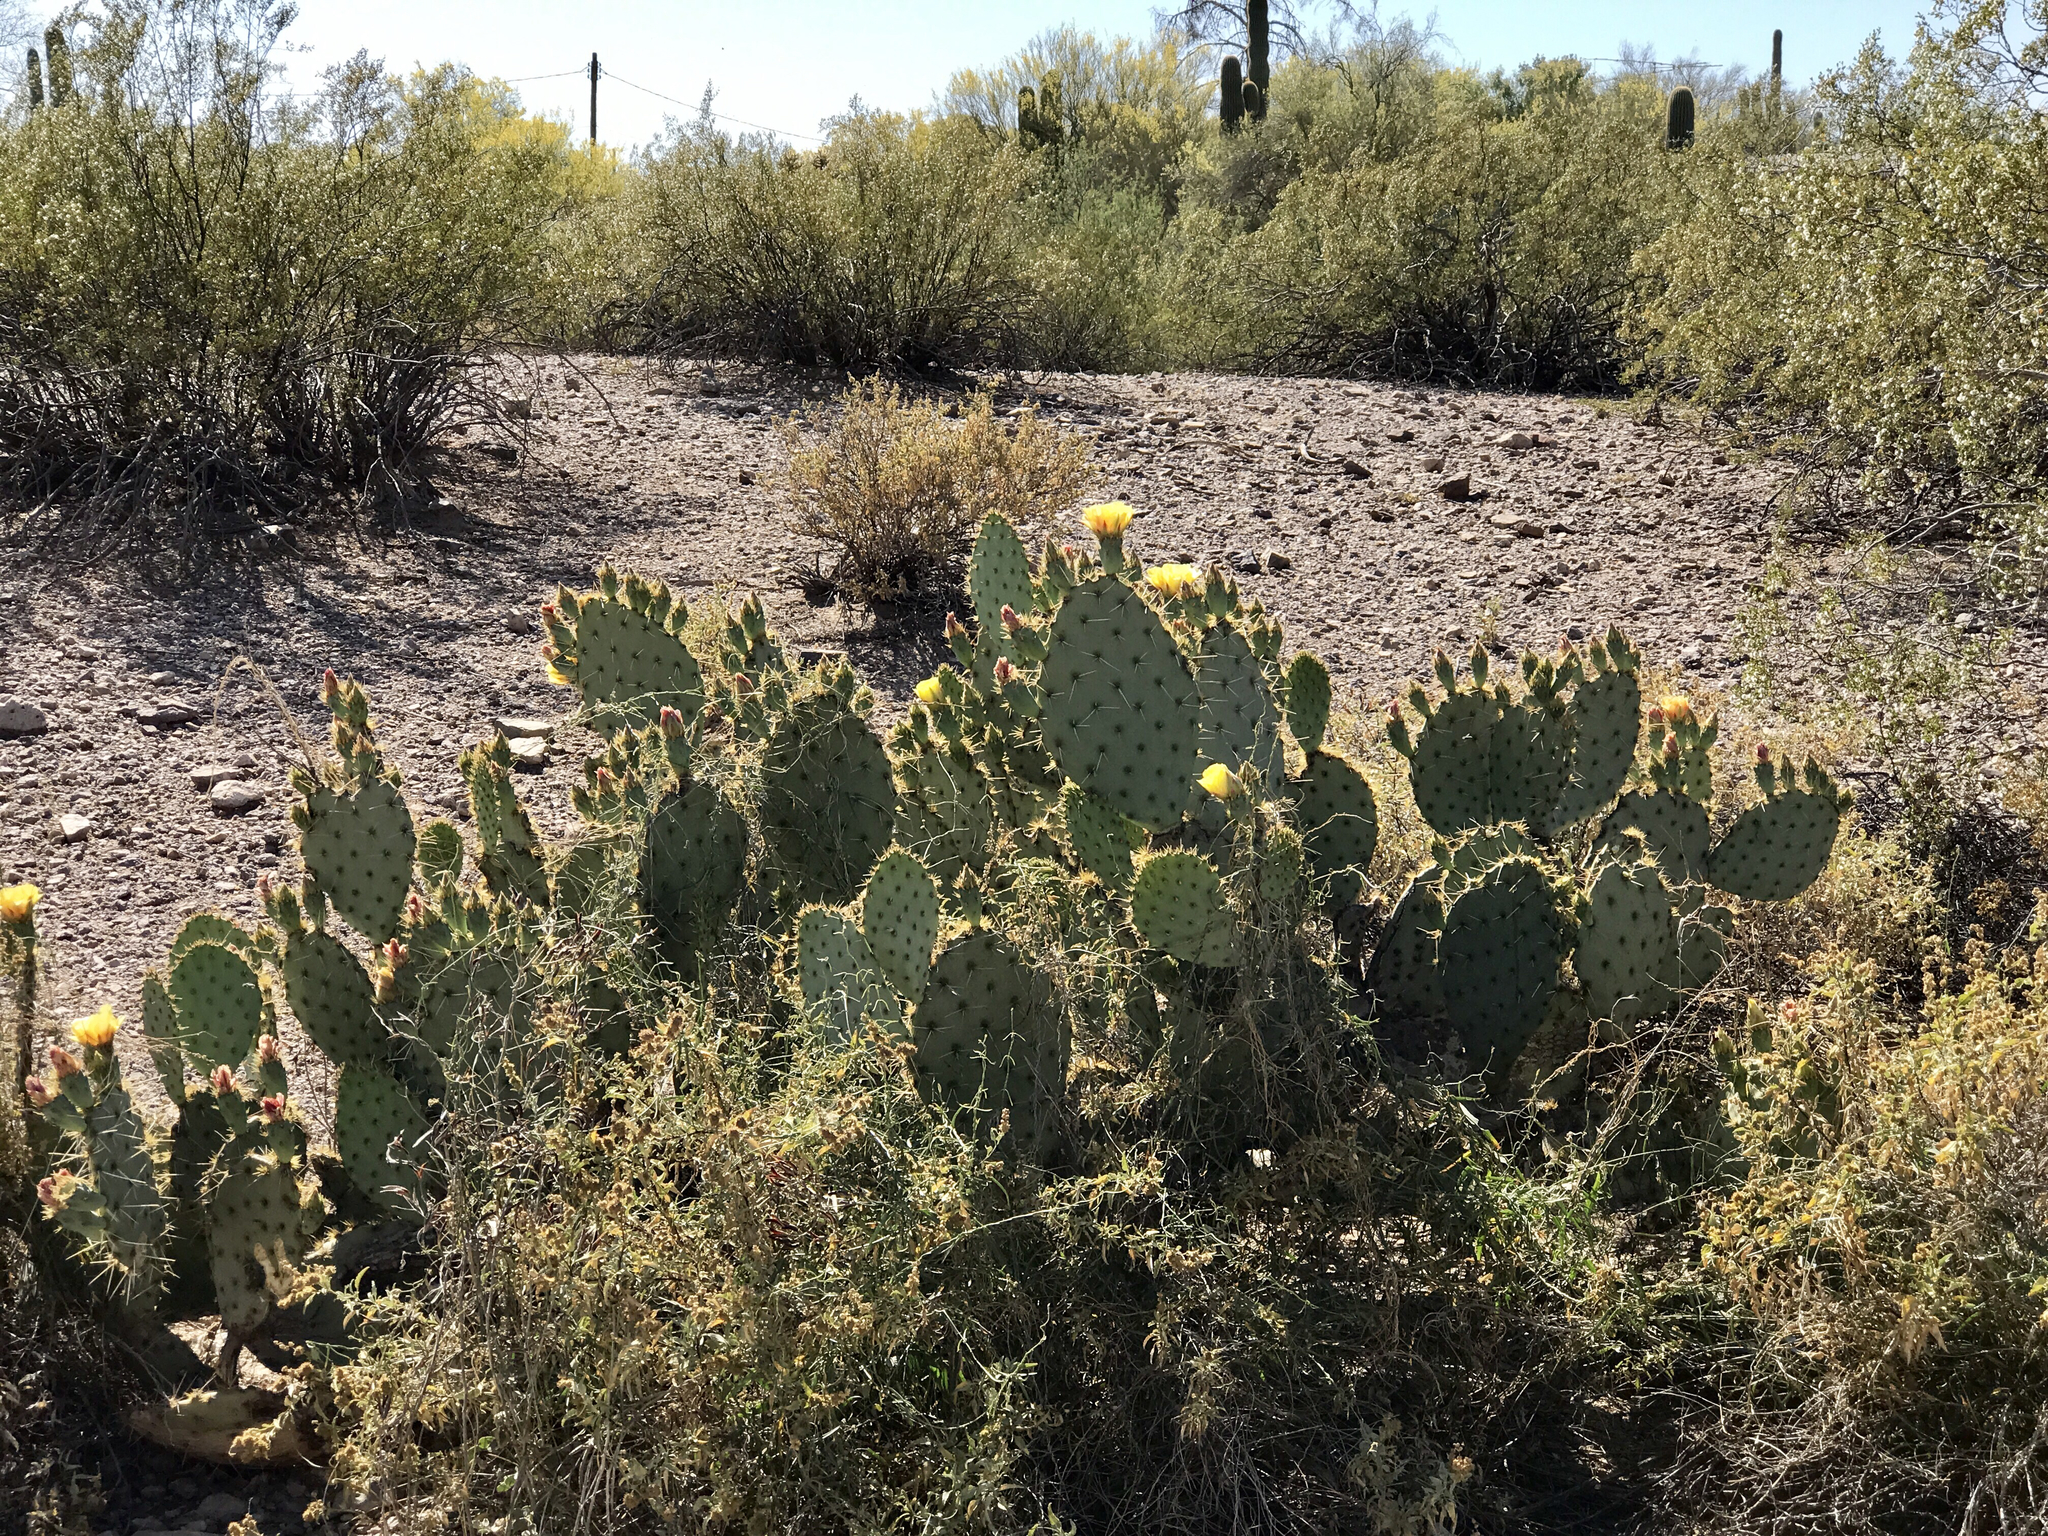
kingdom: Plantae
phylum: Tracheophyta
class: Magnoliopsida
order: Caryophyllales
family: Cactaceae
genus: Opuntia
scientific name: Opuntia engelmannii
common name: Cactus-apple
